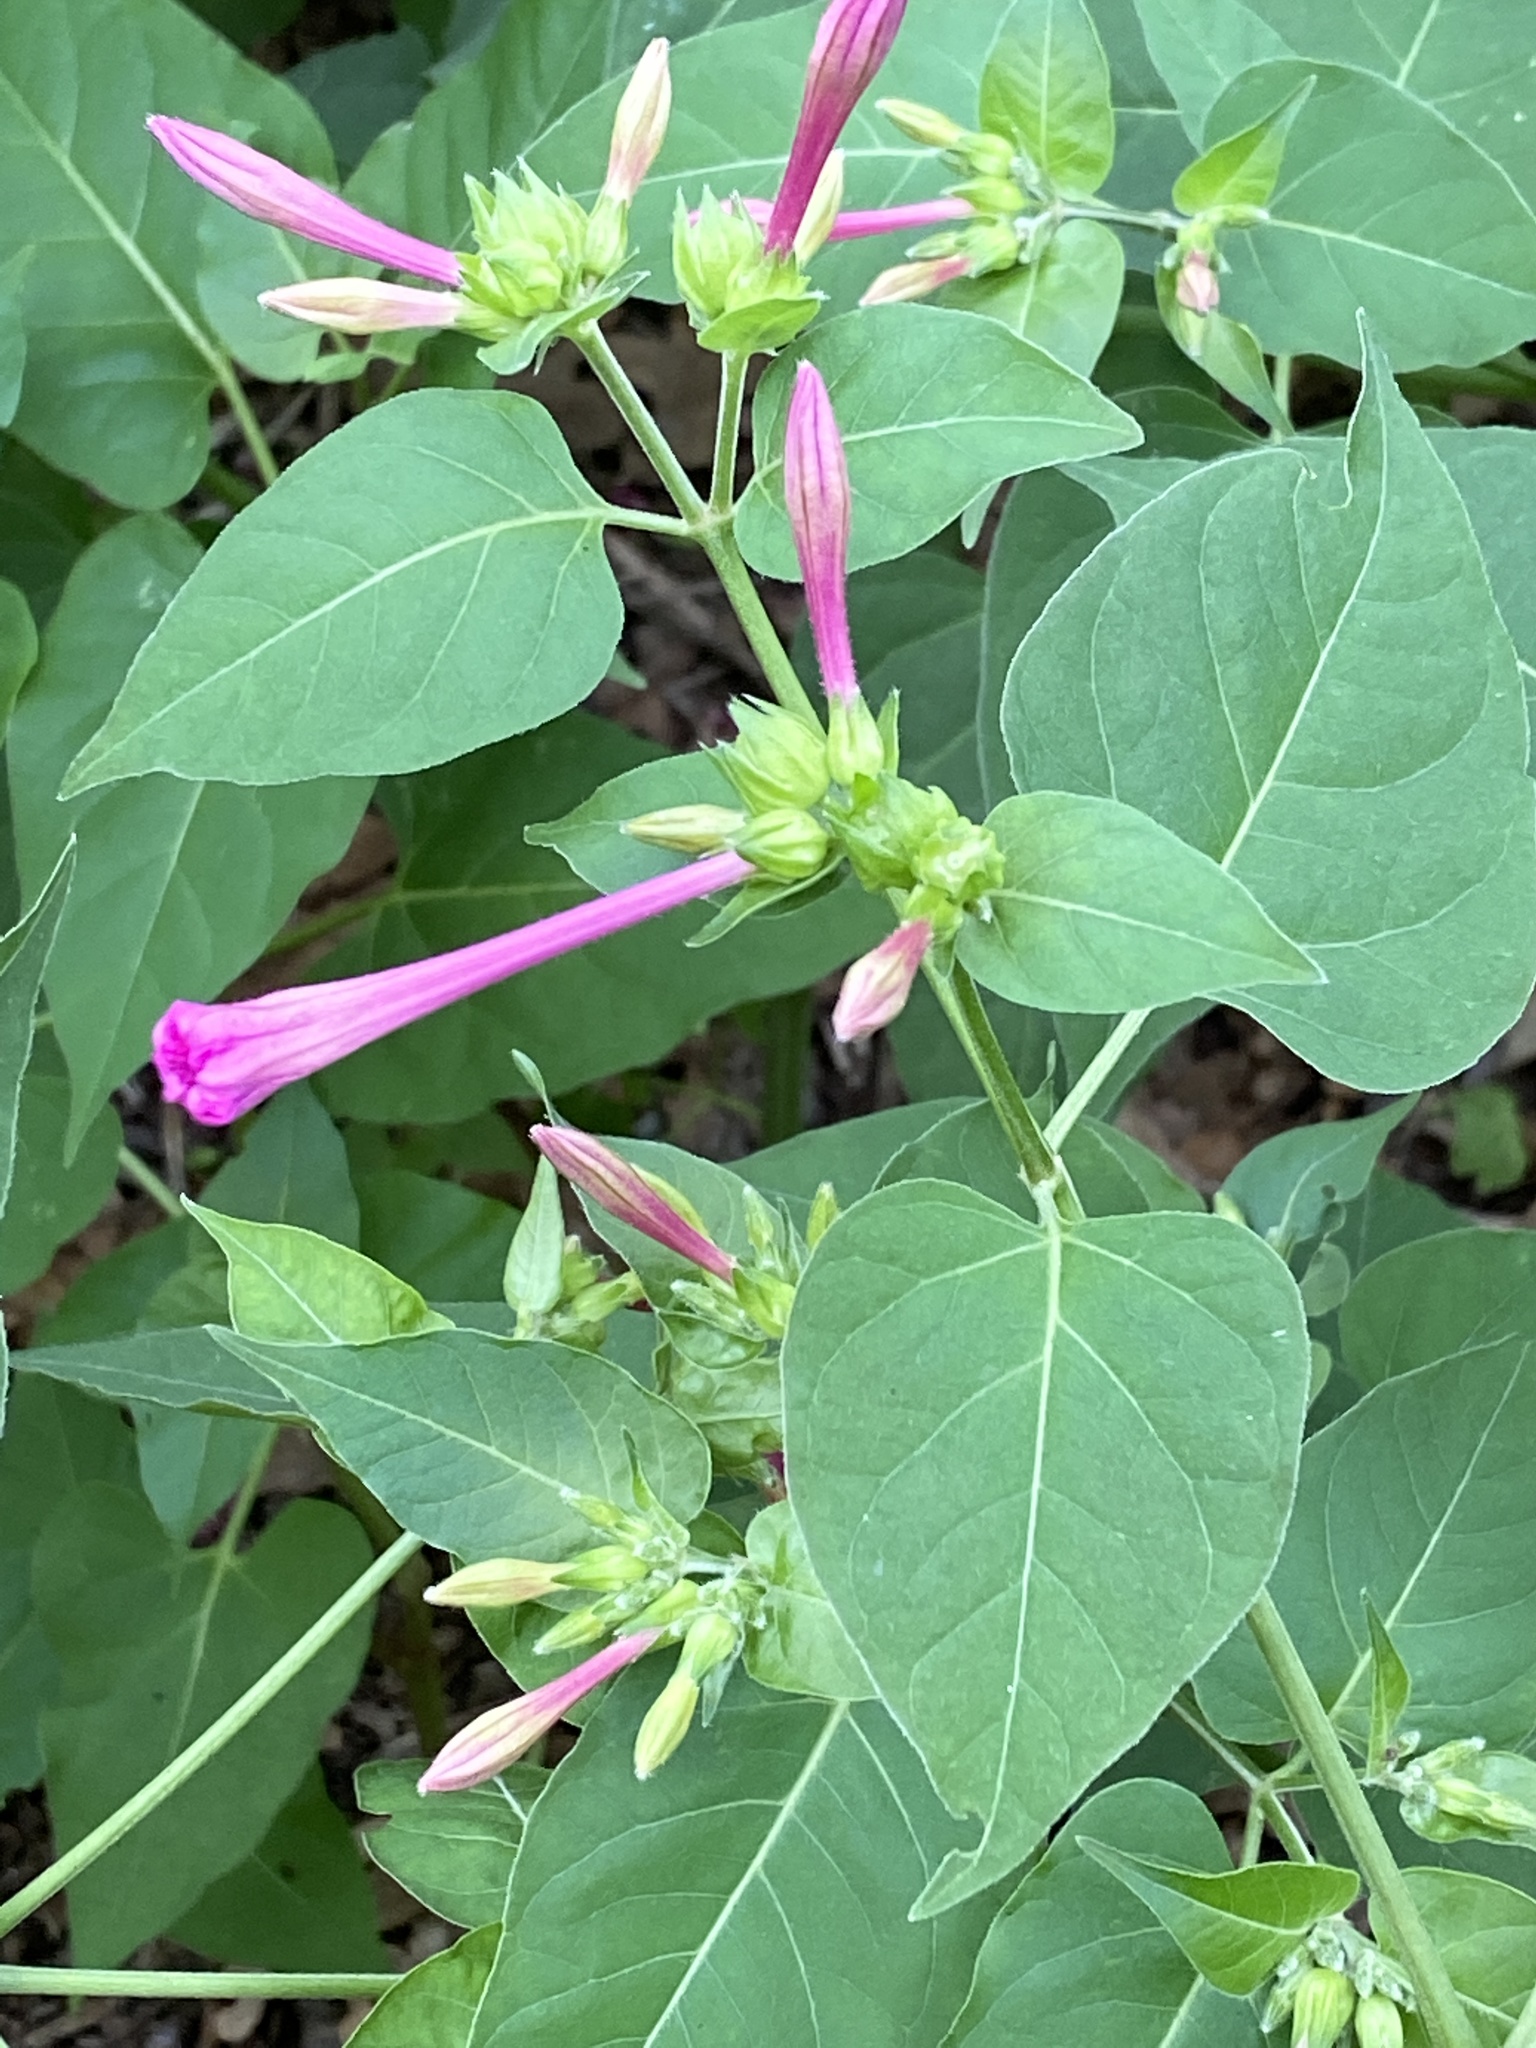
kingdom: Plantae
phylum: Tracheophyta
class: Magnoliopsida
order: Caryophyllales
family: Nyctaginaceae
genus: Mirabilis
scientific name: Mirabilis jalapa
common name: Marvel-of-peru
